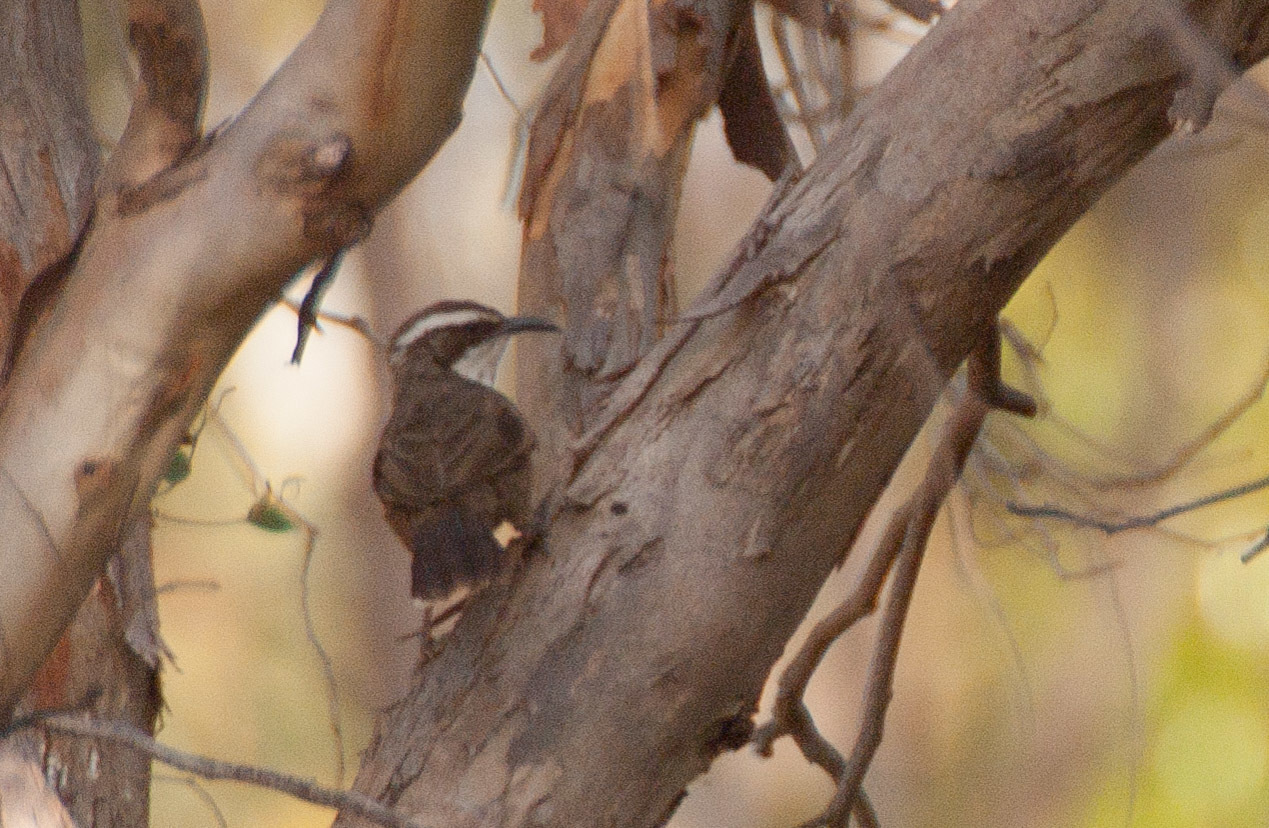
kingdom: Animalia
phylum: Chordata
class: Aves
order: Passeriformes
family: Pomatostomidae
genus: Pomatostomus
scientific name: Pomatostomus superciliosus
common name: White-browed babbler
